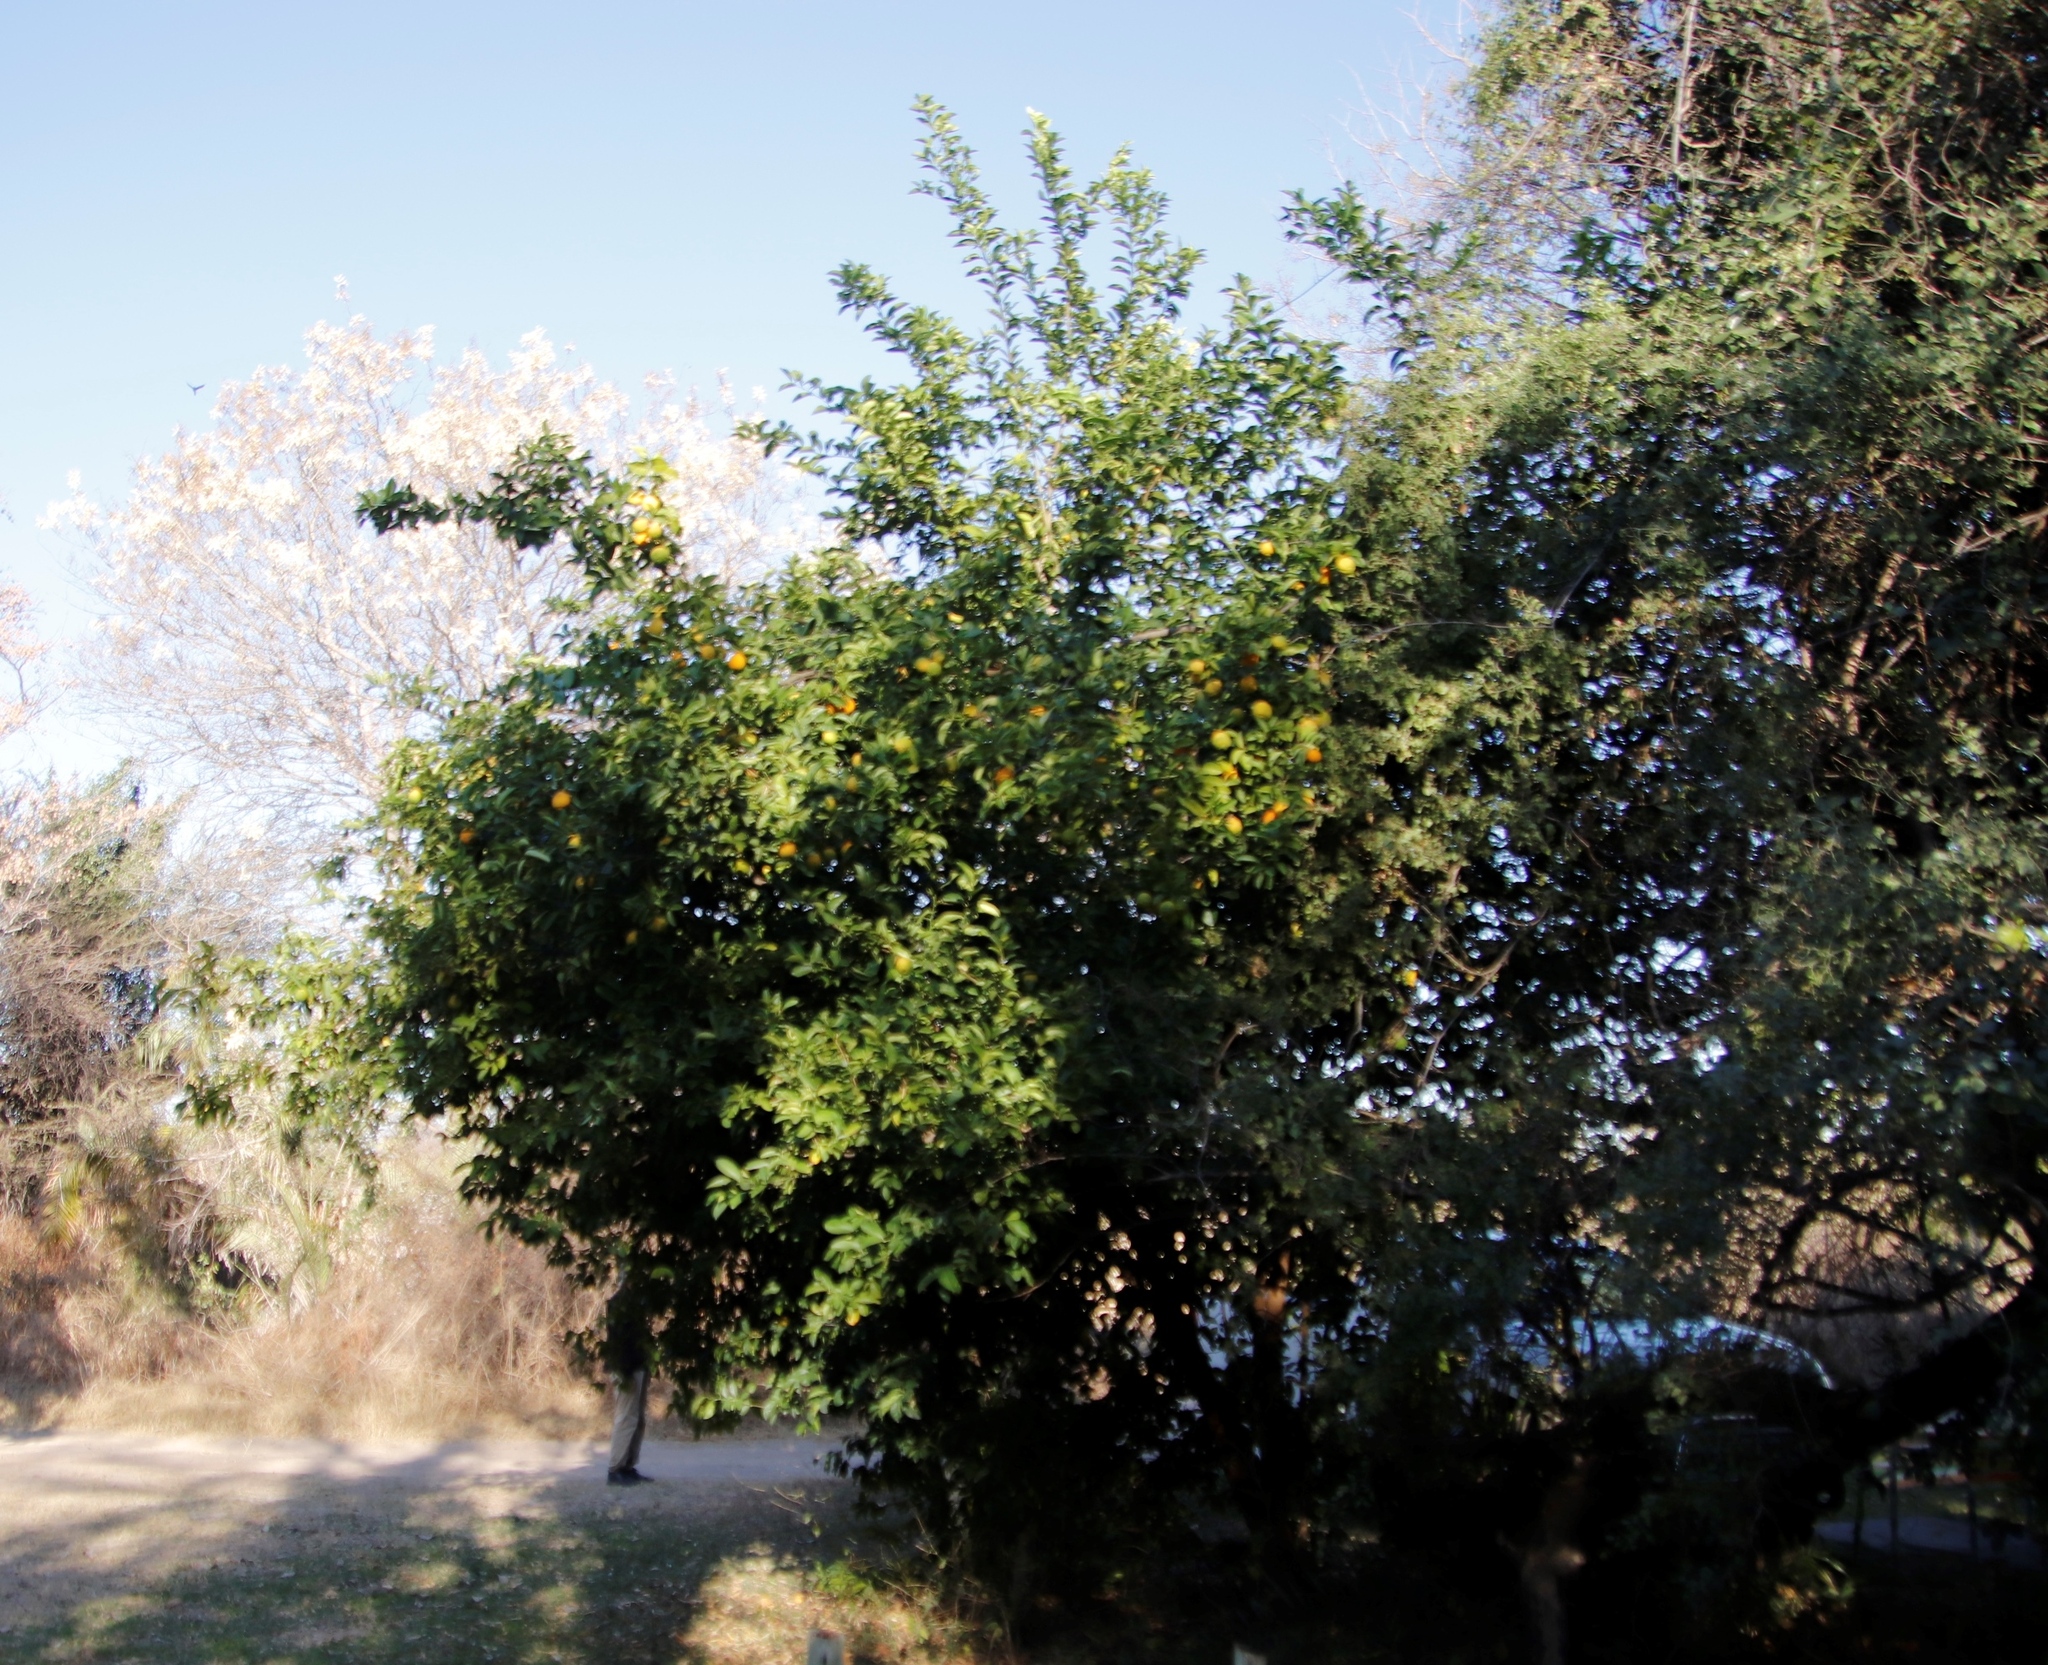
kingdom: Plantae
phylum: Tracheophyta
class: Magnoliopsida
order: Sapindales
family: Rutaceae
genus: Citrus
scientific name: Citrus taitensis
